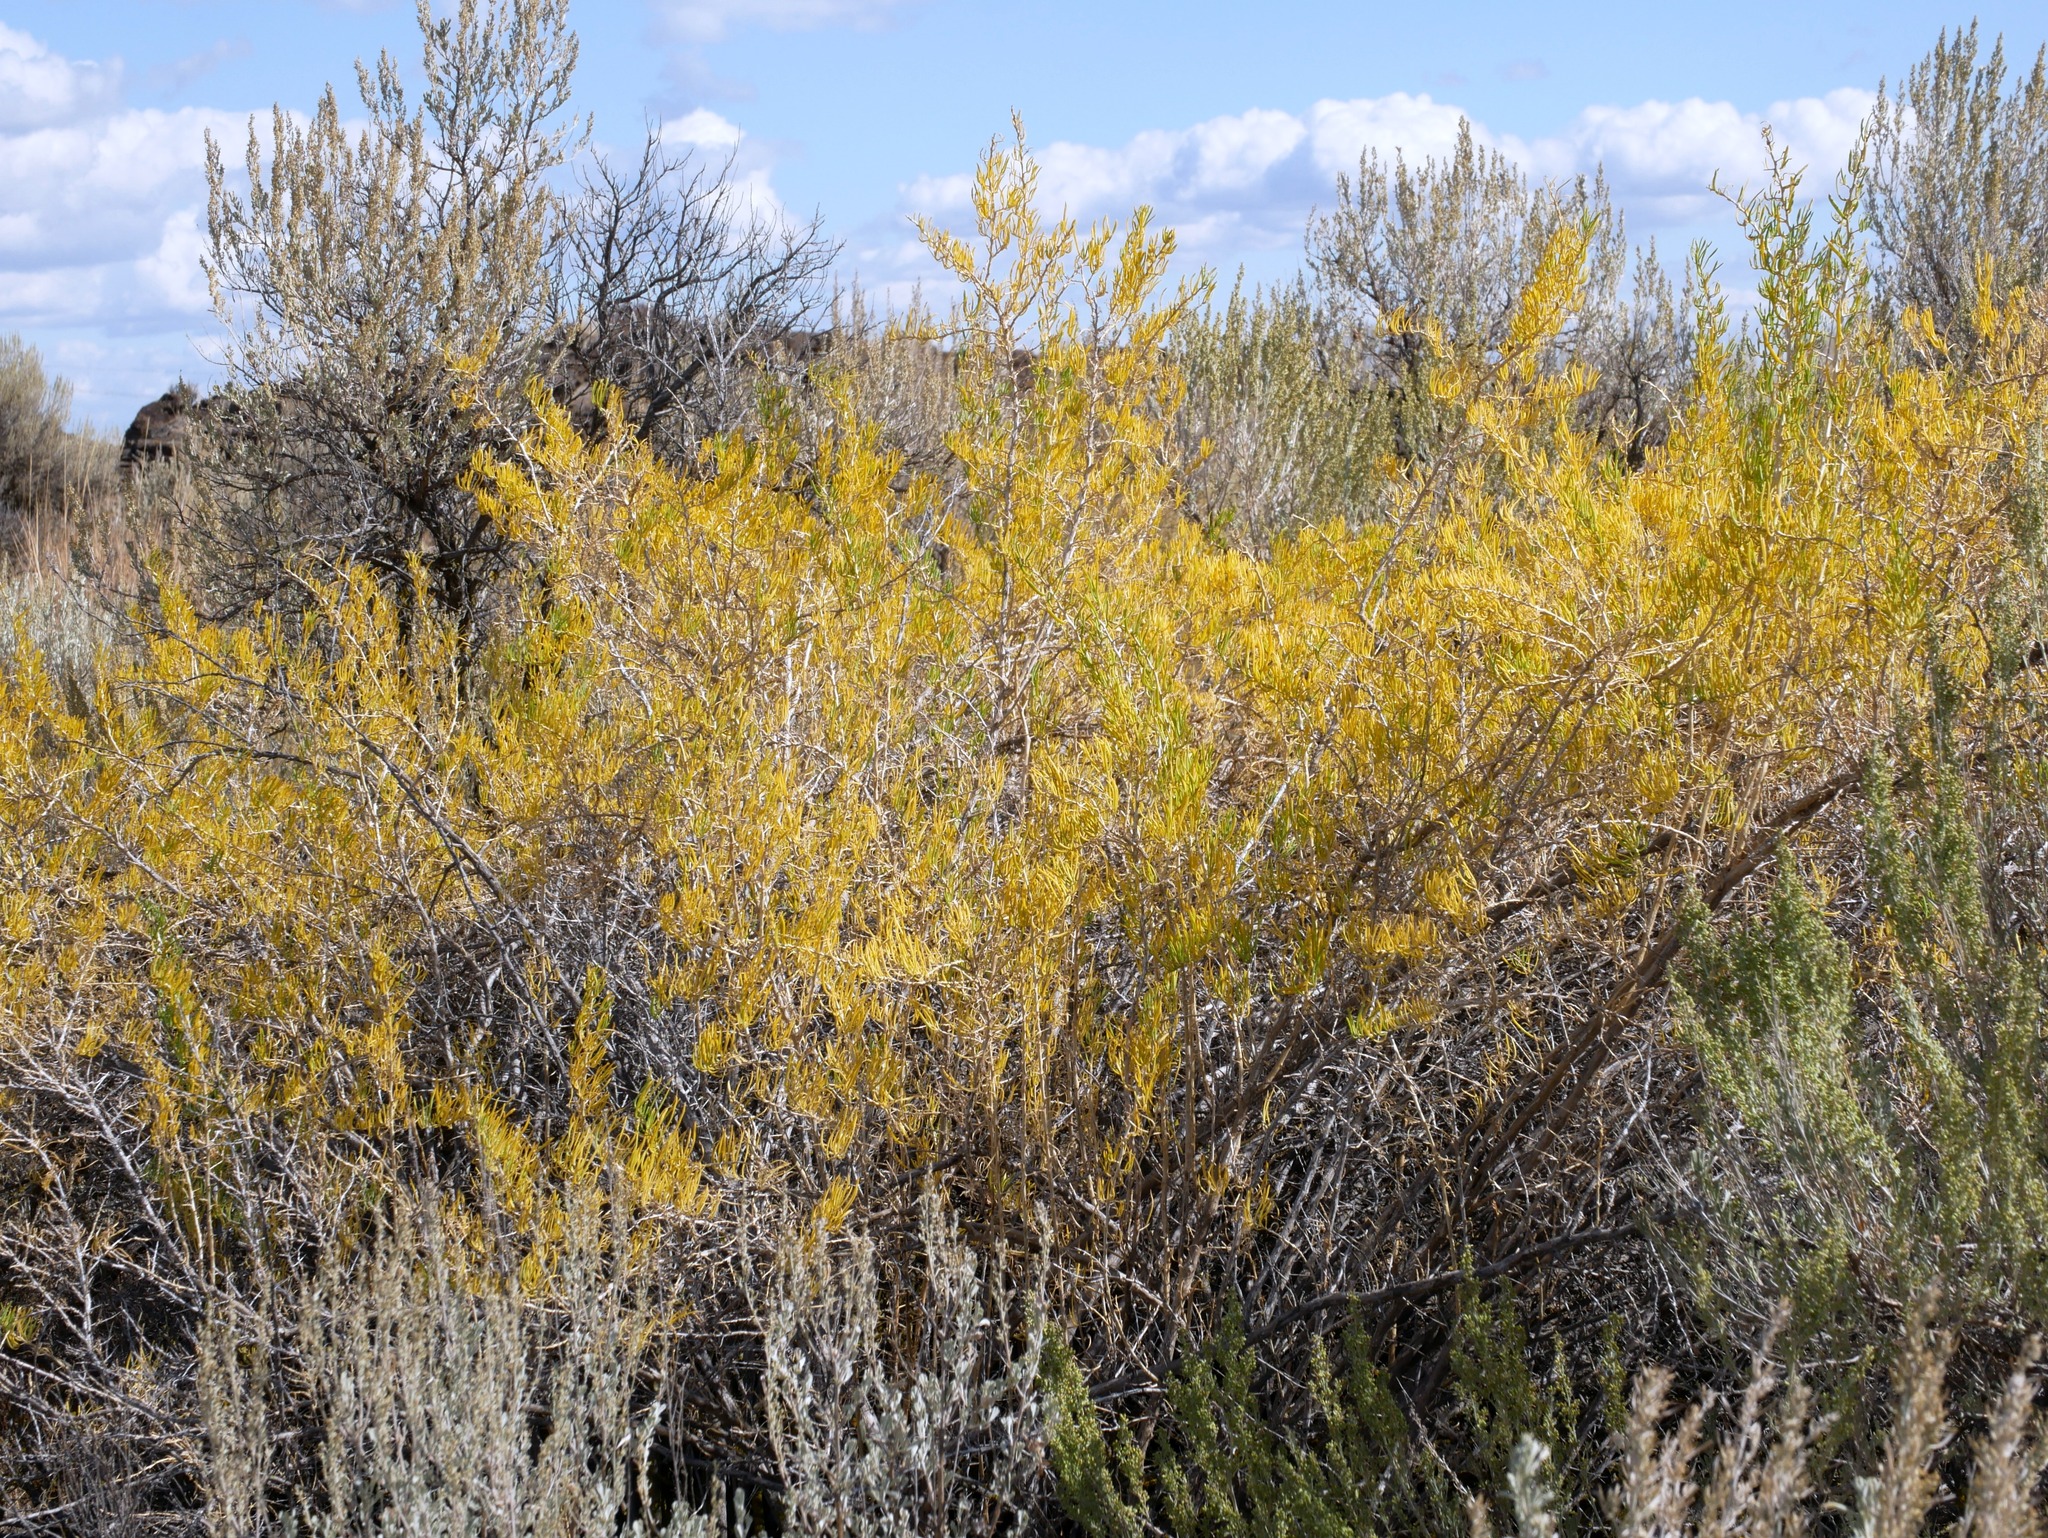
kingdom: Plantae
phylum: Tracheophyta
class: Magnoliopsida
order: Caryophyllales
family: Sarcobataceae
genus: Sarcobatus
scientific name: Sarcobatus vermiculatus
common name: Greasewood
